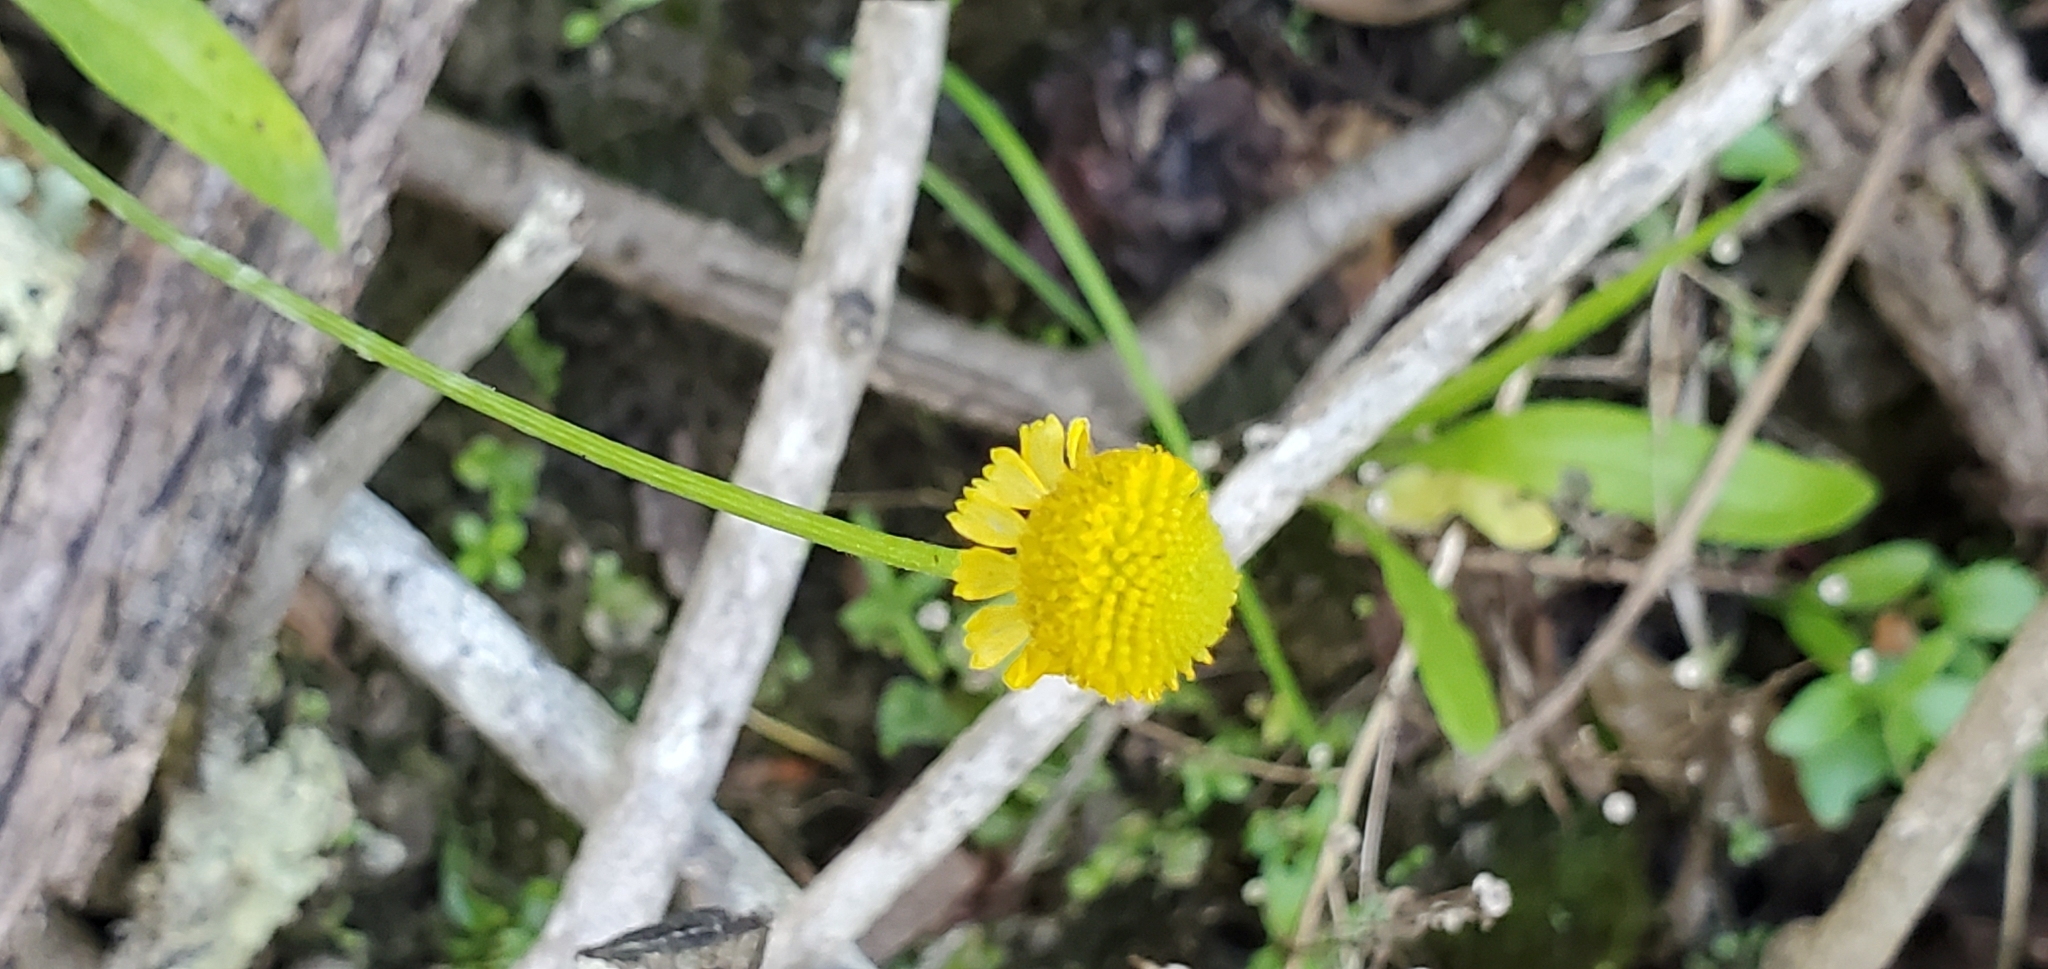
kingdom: Plantae
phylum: Tracheophyta
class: Magnoliopsida
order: Asterales
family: Asteraceae
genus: Helenium
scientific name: Helenium puberulum
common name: Sneezewort
